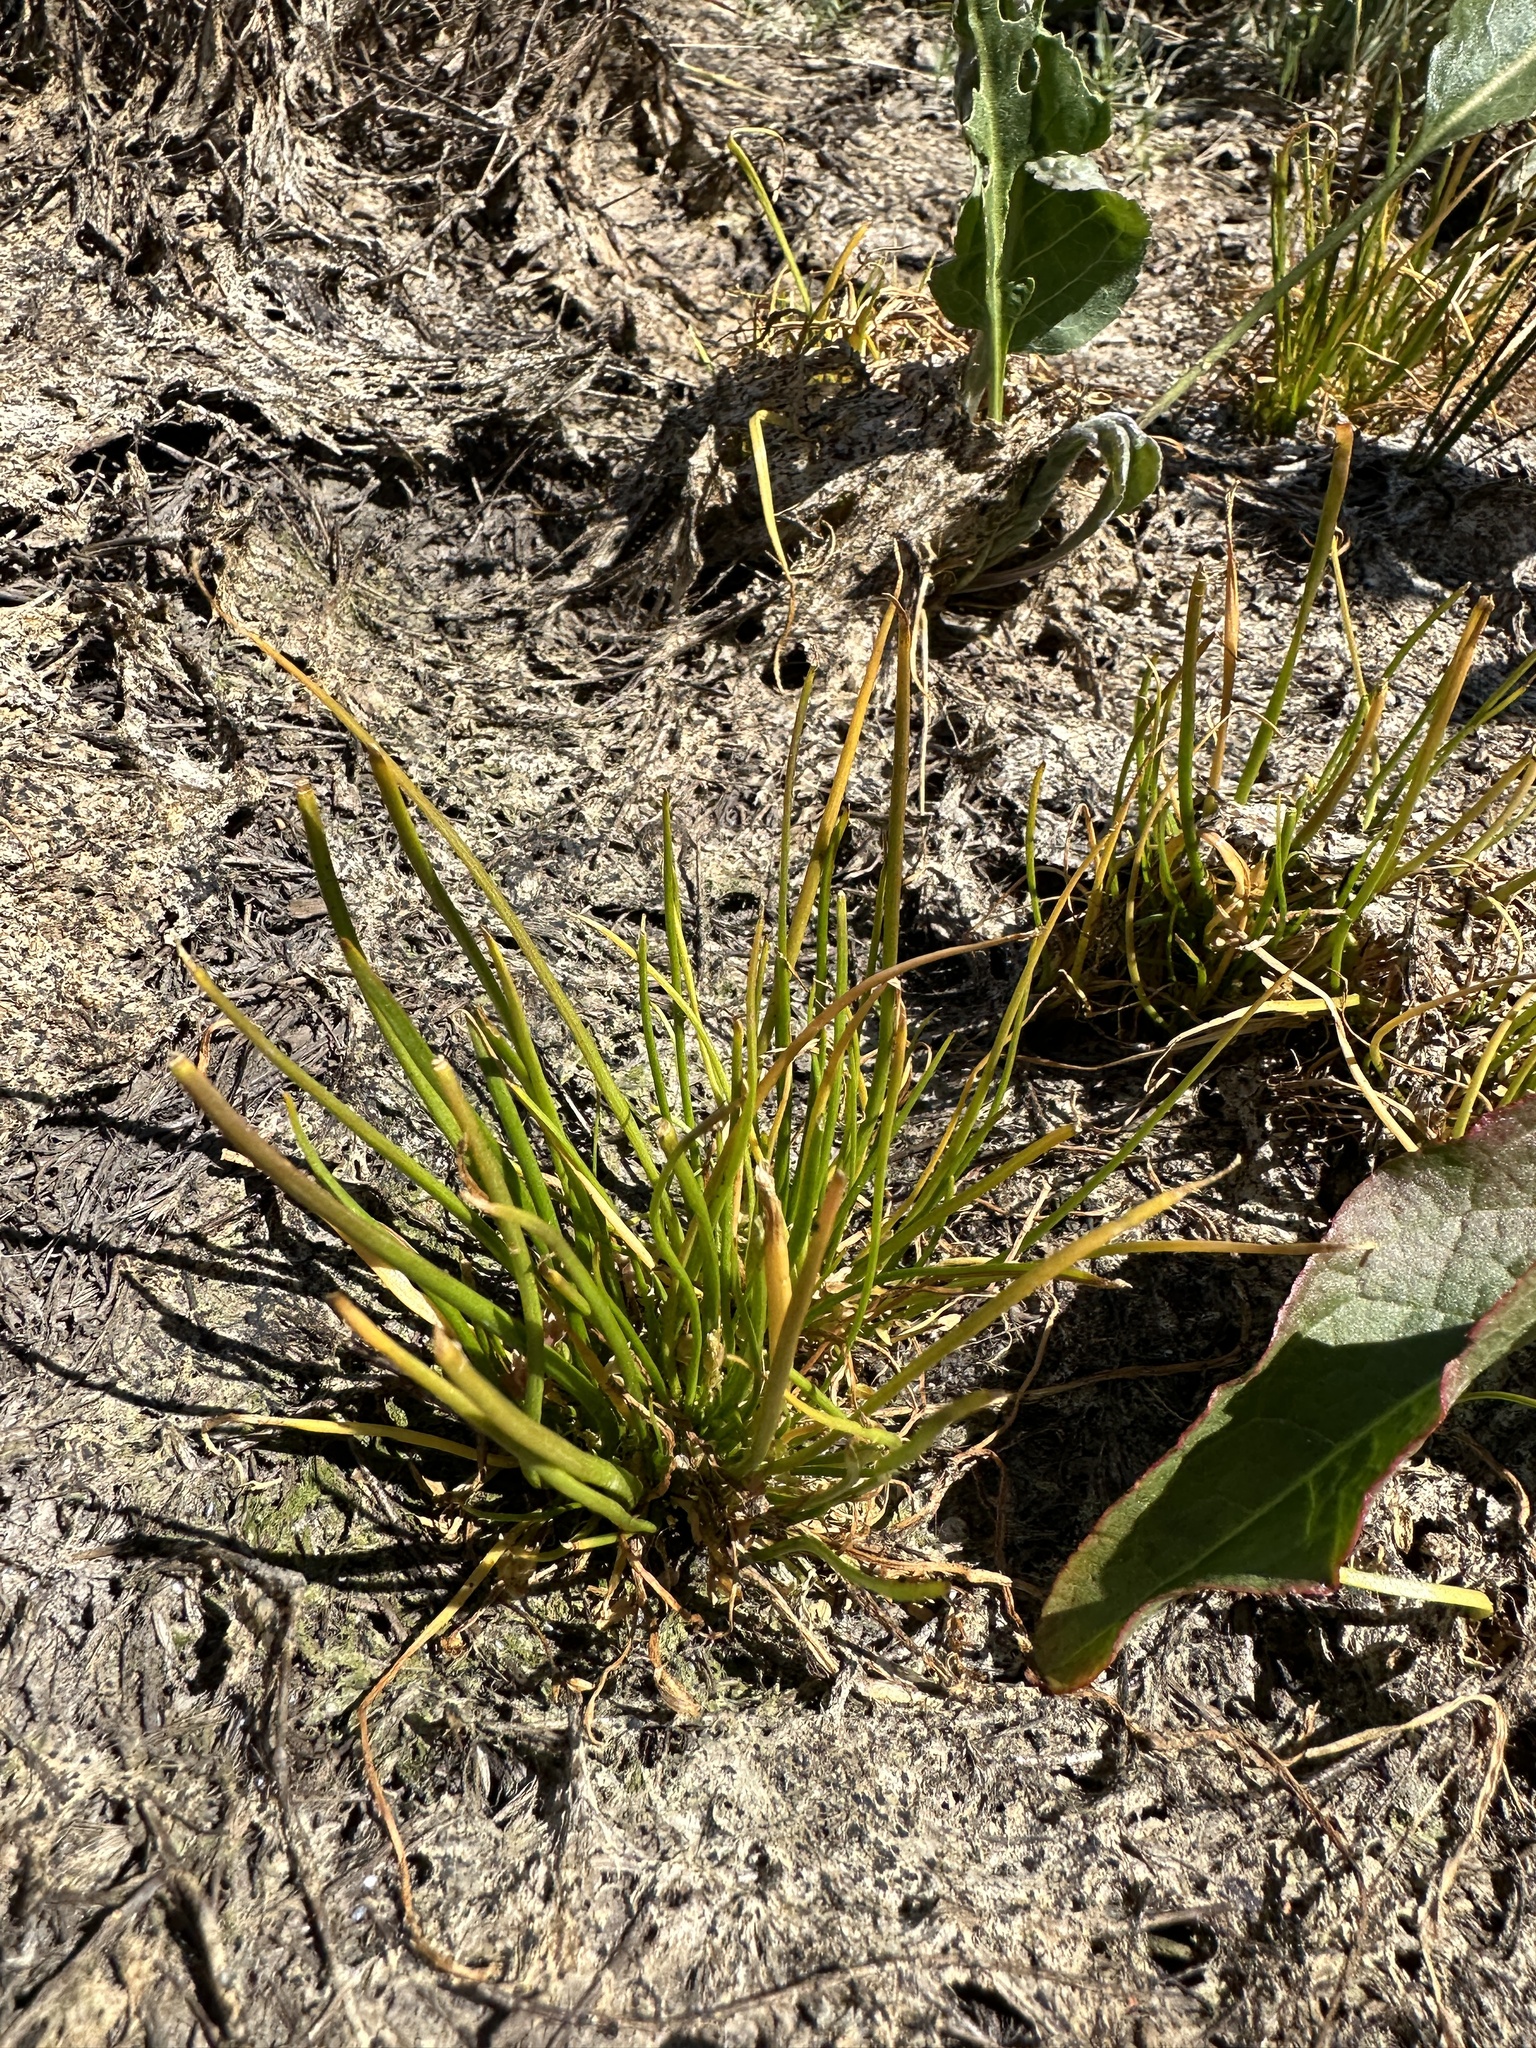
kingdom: Plantae
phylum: Tracheophyta
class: Liliopsida
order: Alismatales
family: Juncaginaceae
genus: Triglochin
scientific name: Triglochin scilloides
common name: Awl-leaved lilaea
